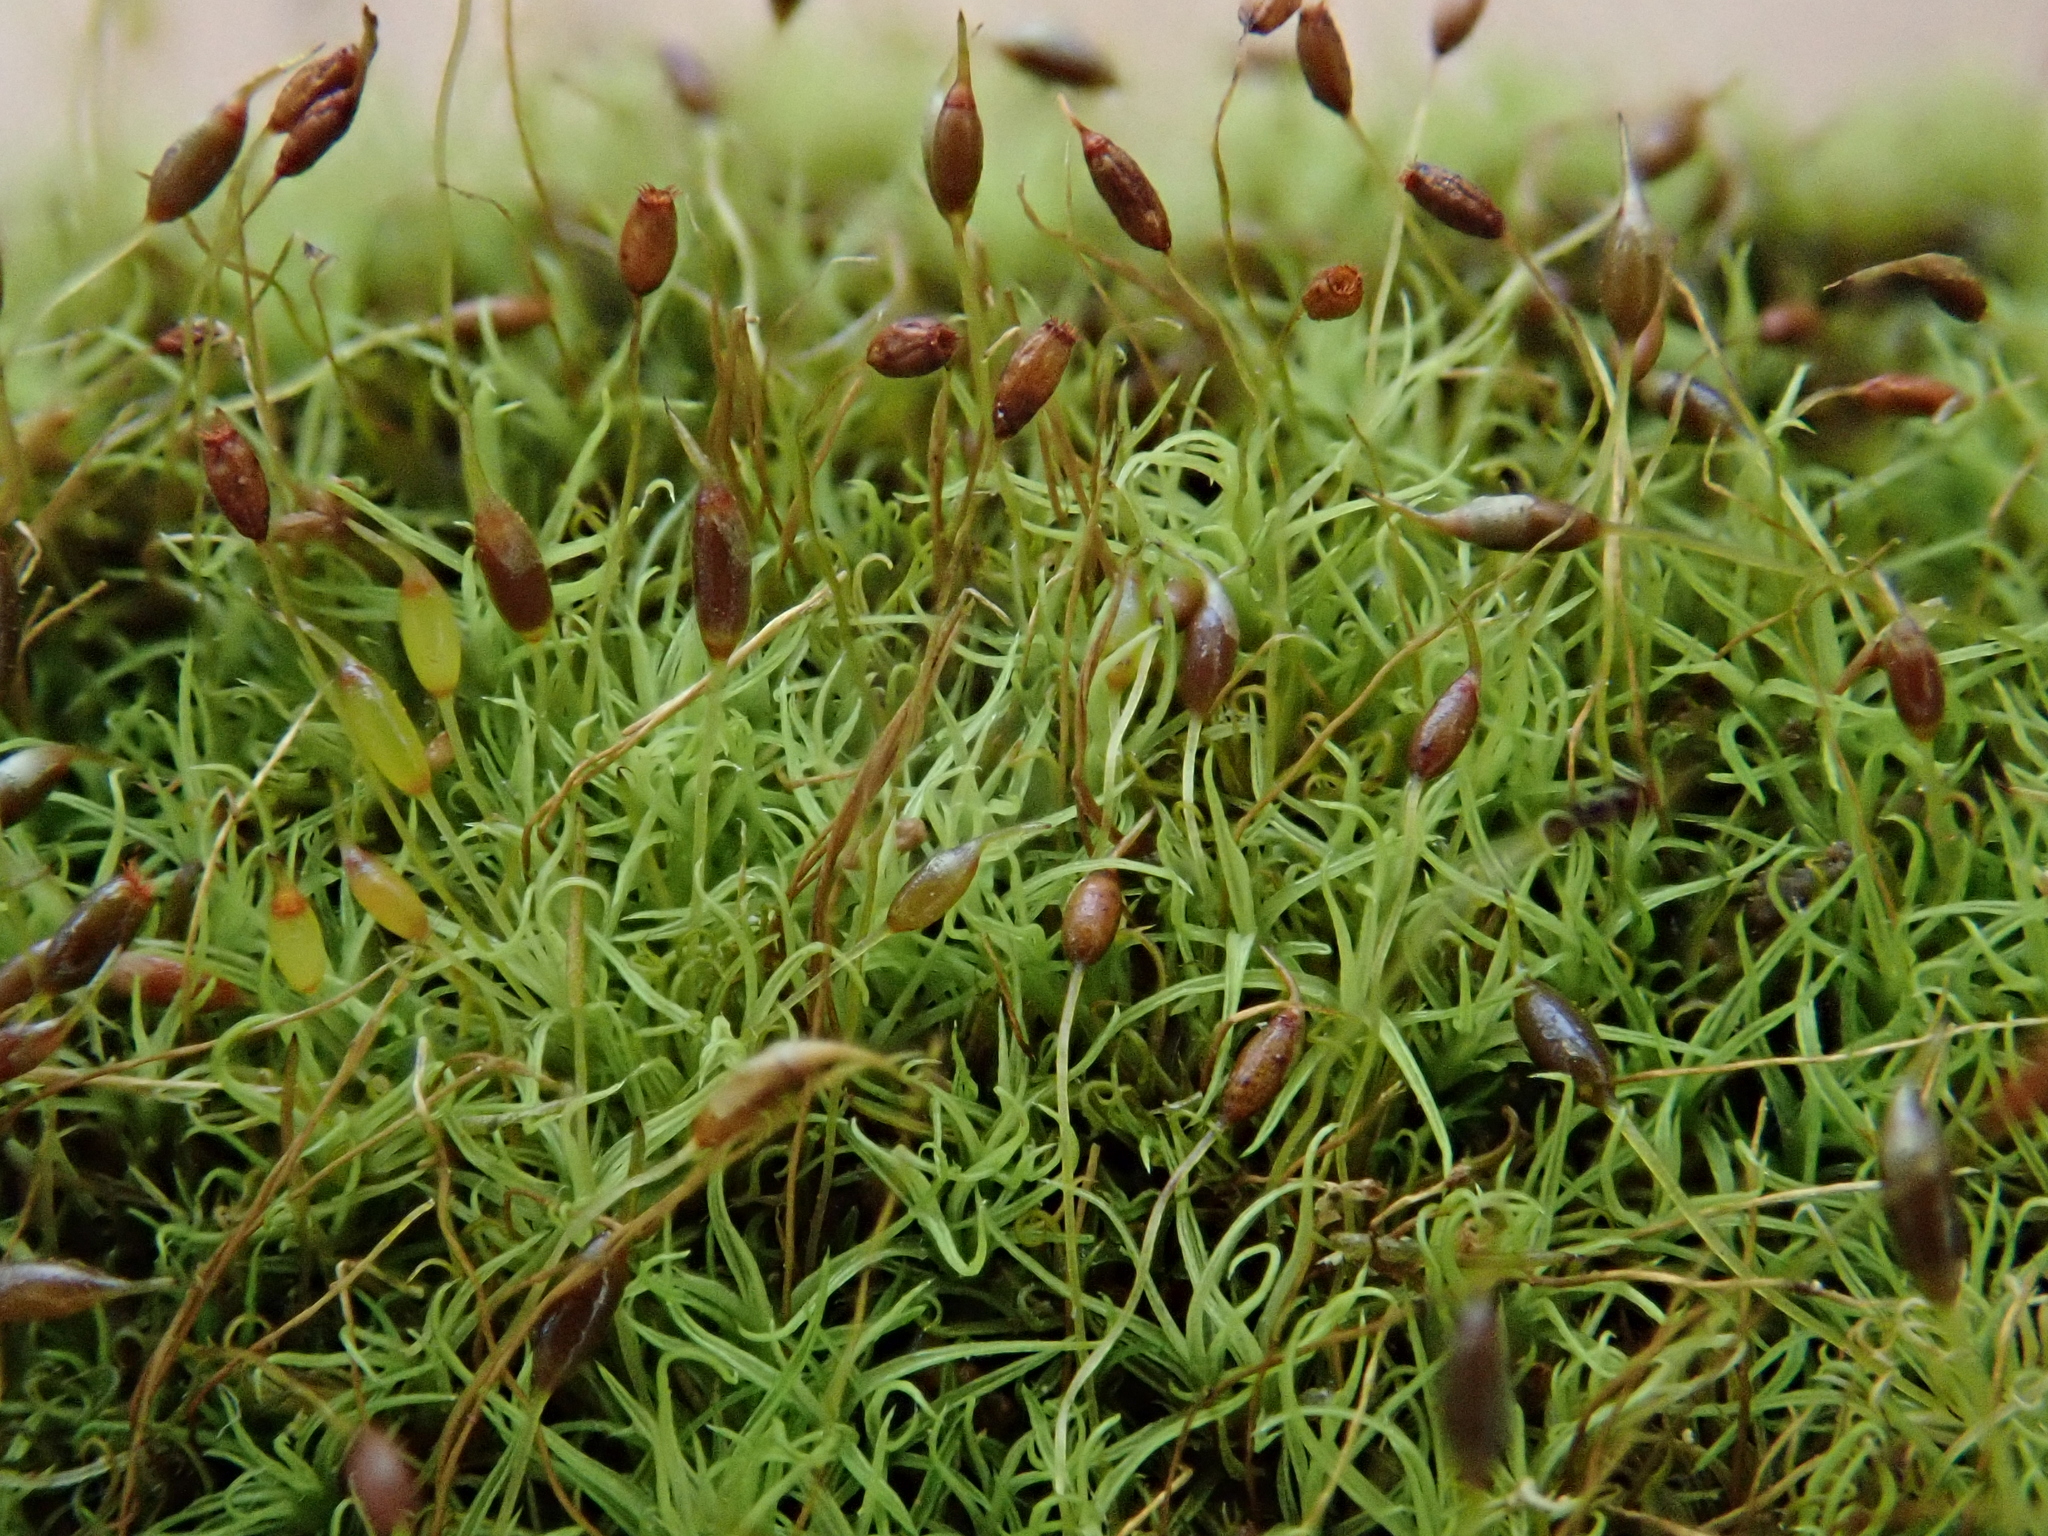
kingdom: Plantae
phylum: Bryophyta
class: Bryopsida
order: Pottiales
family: Pottiaceae
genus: Weissia
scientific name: Weissia controversa
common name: Green-tufted stubble moss
